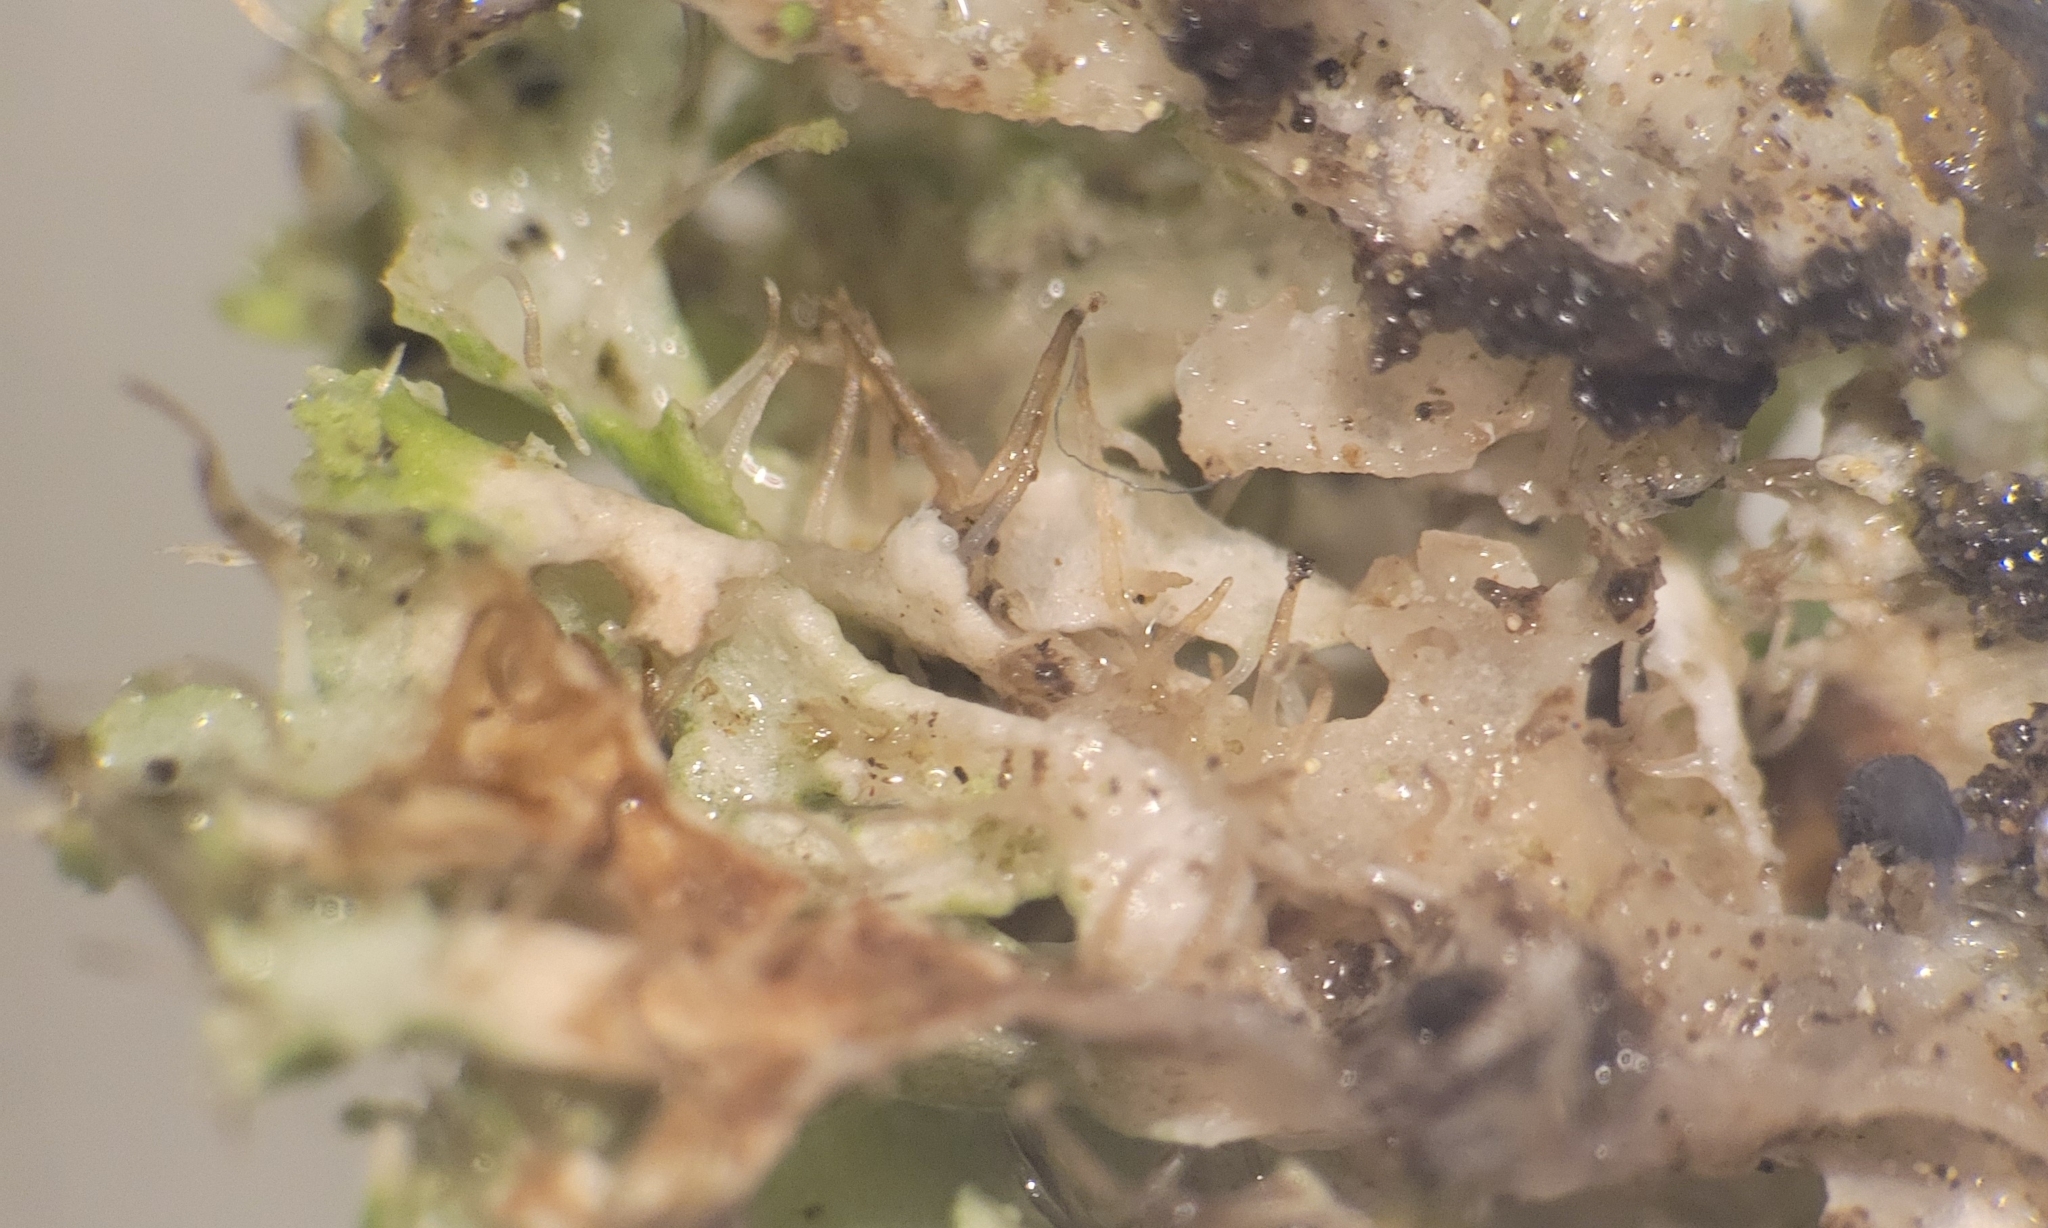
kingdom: Fungi
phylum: Ascomycota
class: Lecanoromycetes
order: Caliciales
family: Physciaceae
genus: Physcia
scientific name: Physcia tenella
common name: Fringed rosette lichen
